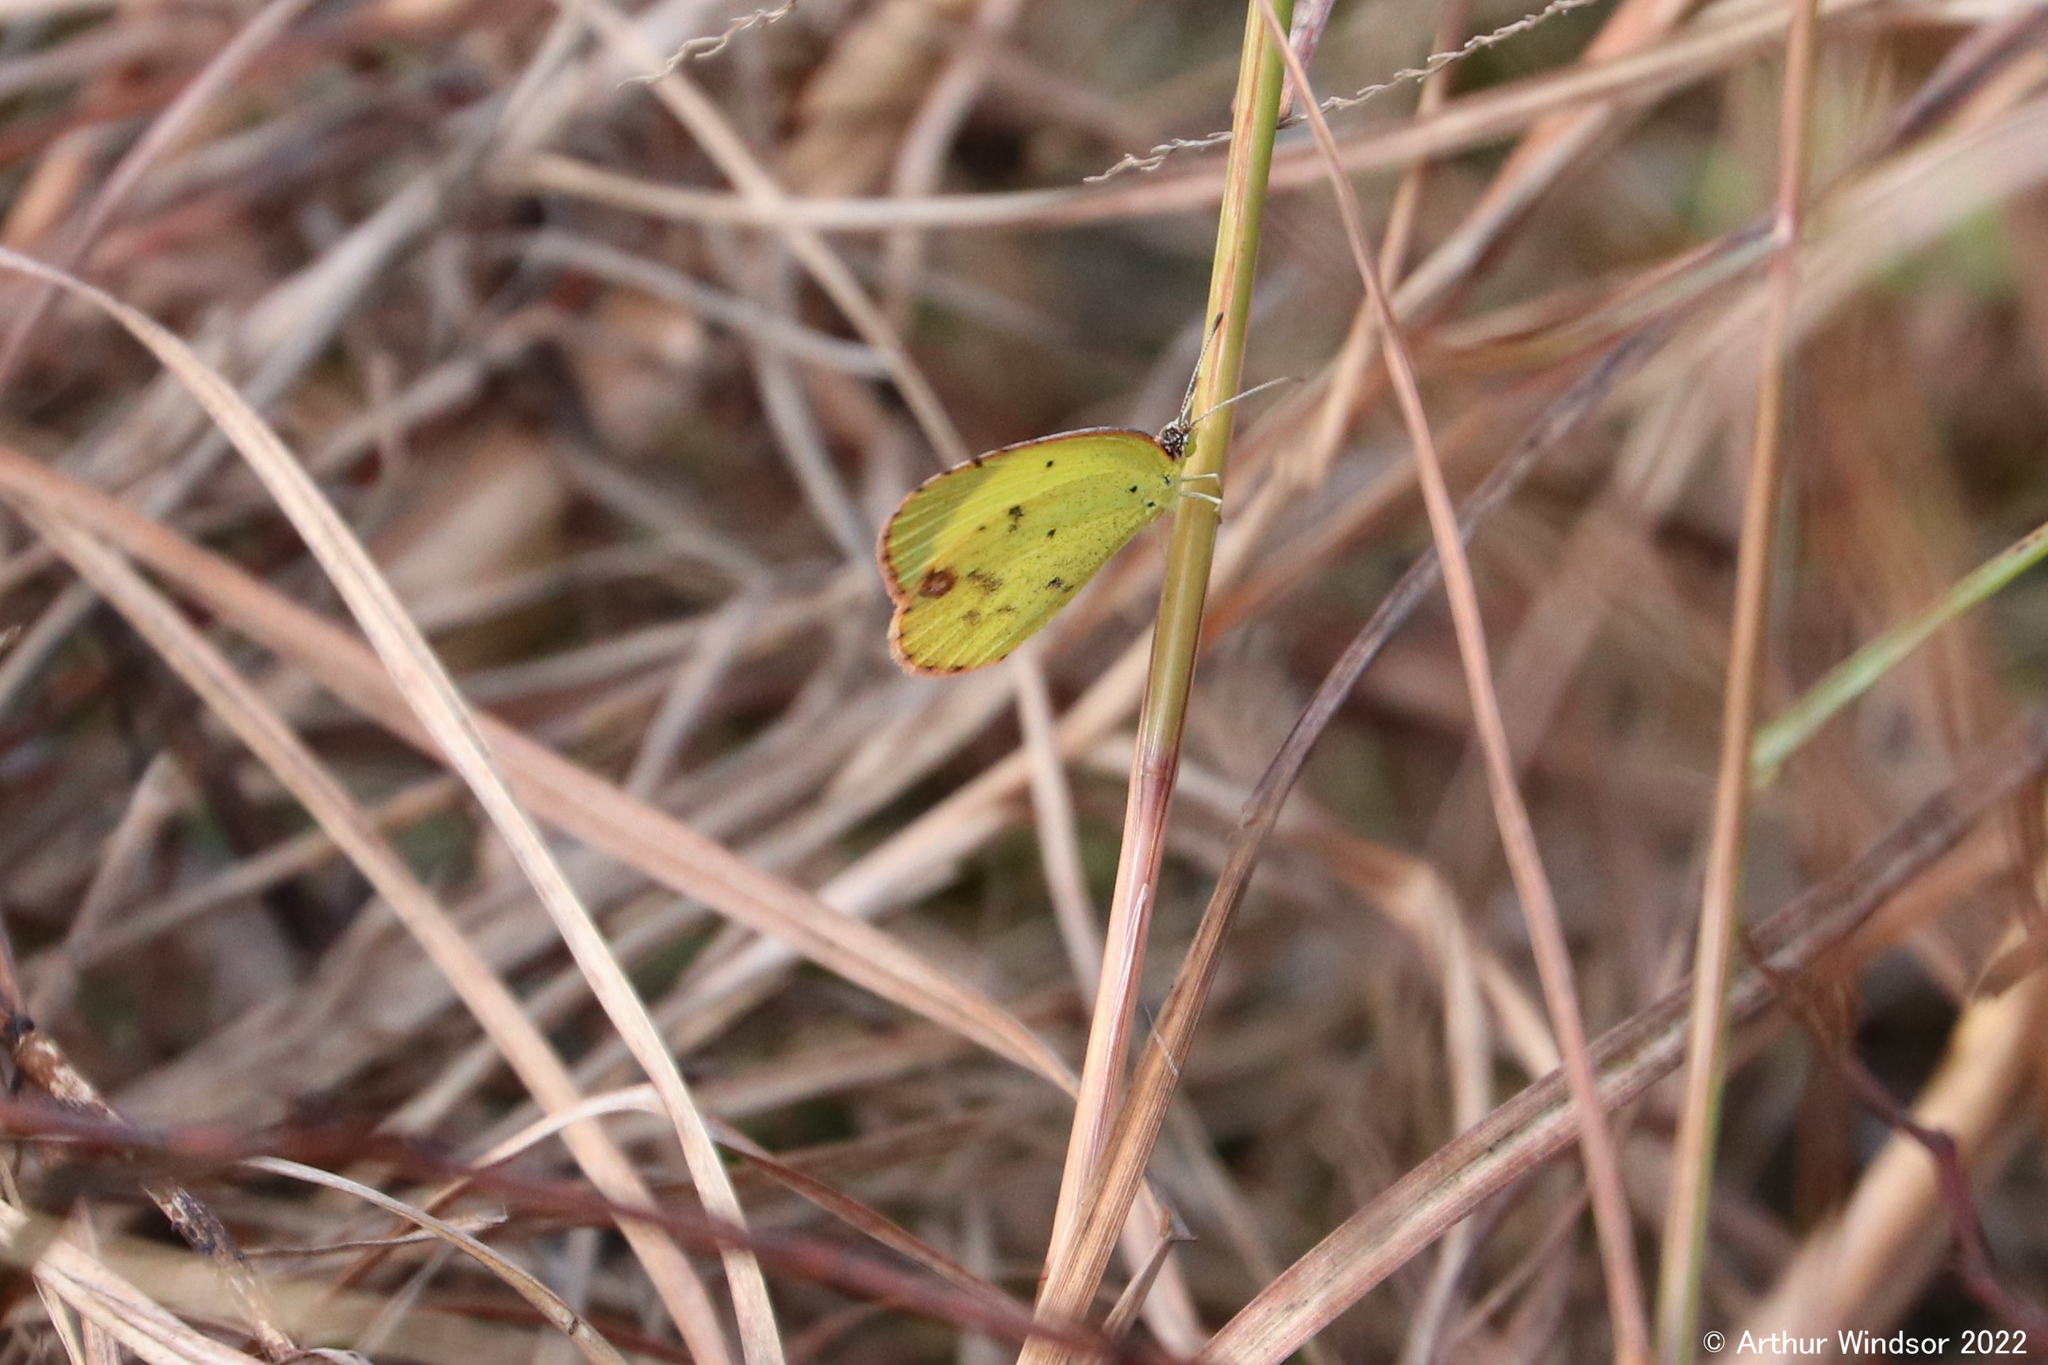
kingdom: Animalia
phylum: Arthropoda
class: Insecta
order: Lepidoptera
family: Pieridae
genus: Pyrisitia
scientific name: Pyrisitia lisa
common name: Little yellow
